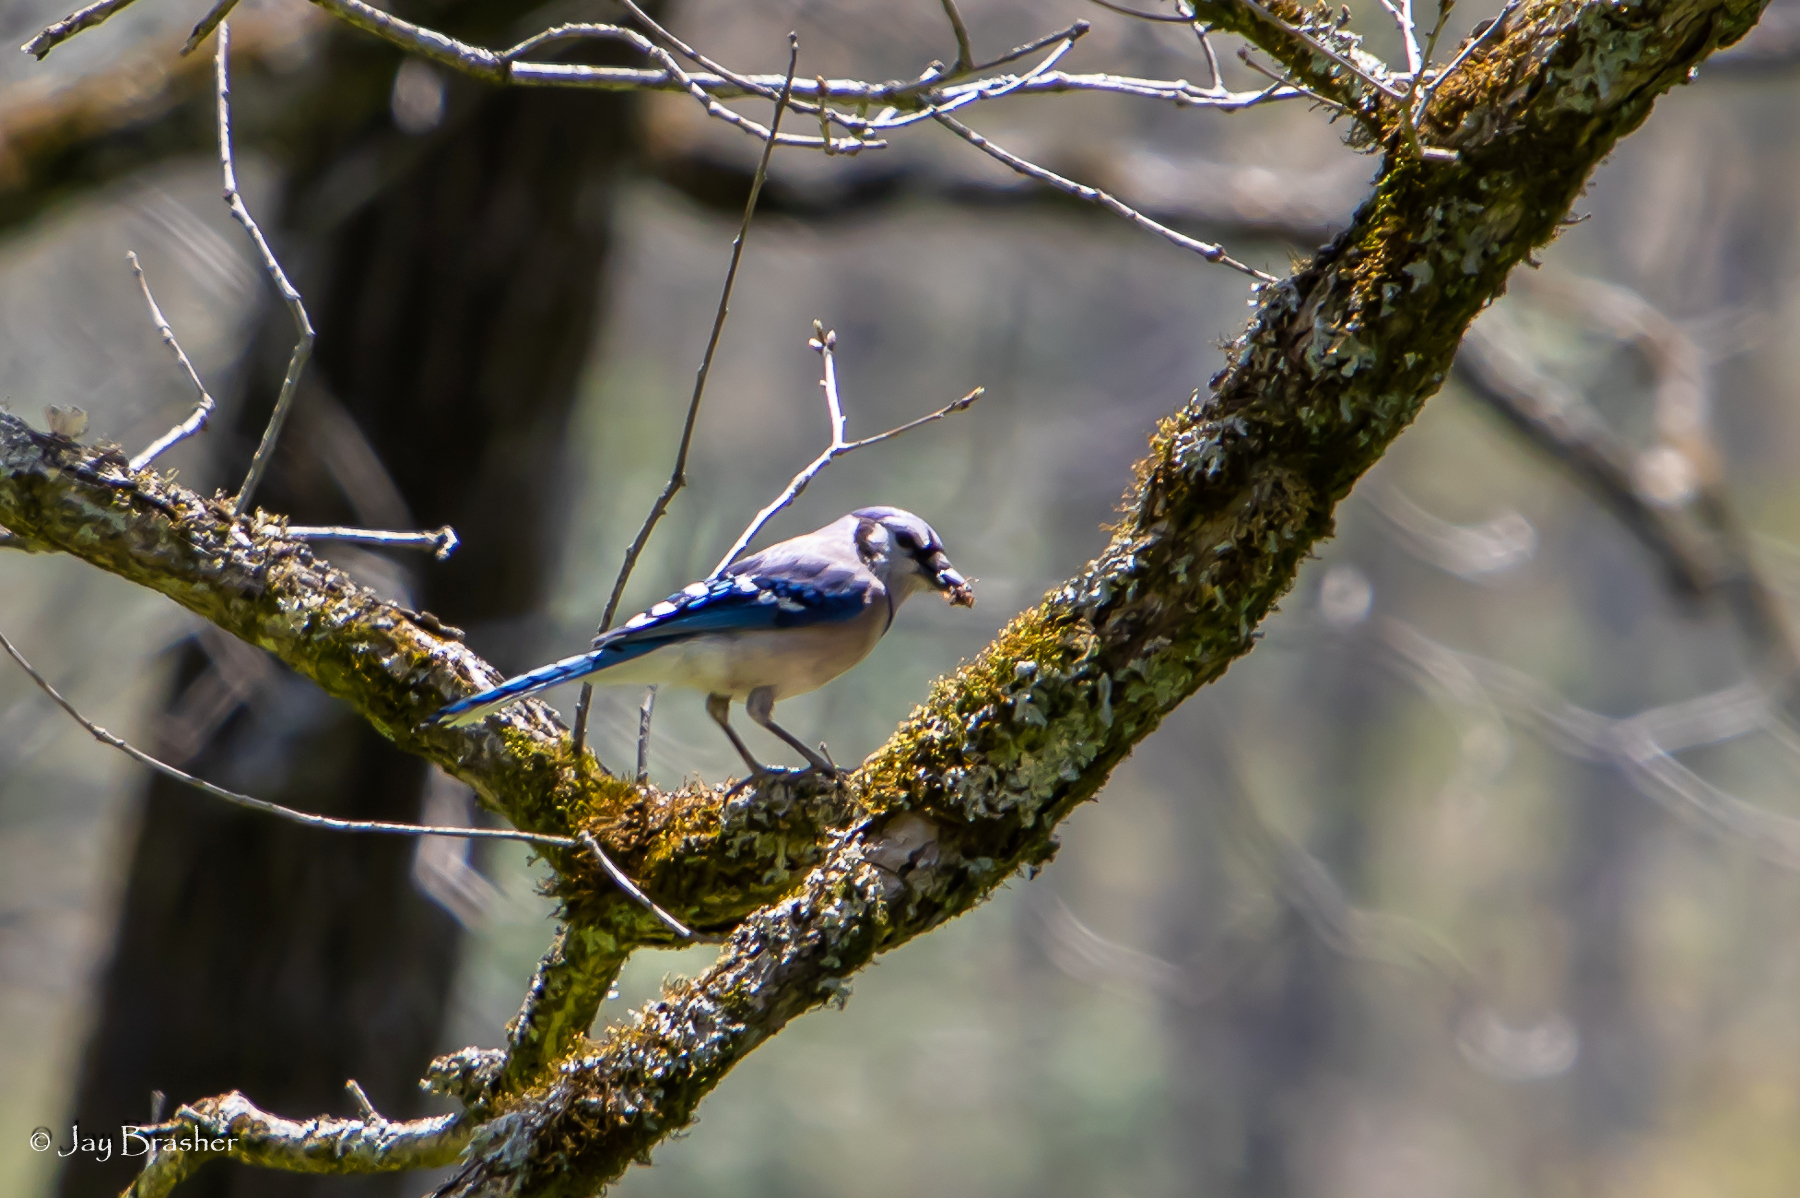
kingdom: Animalia
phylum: Chordata
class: Aves
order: Passeriformes
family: Corvidae
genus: Cyanocitta
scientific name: Cyanocitta cristata
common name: Blue jay
